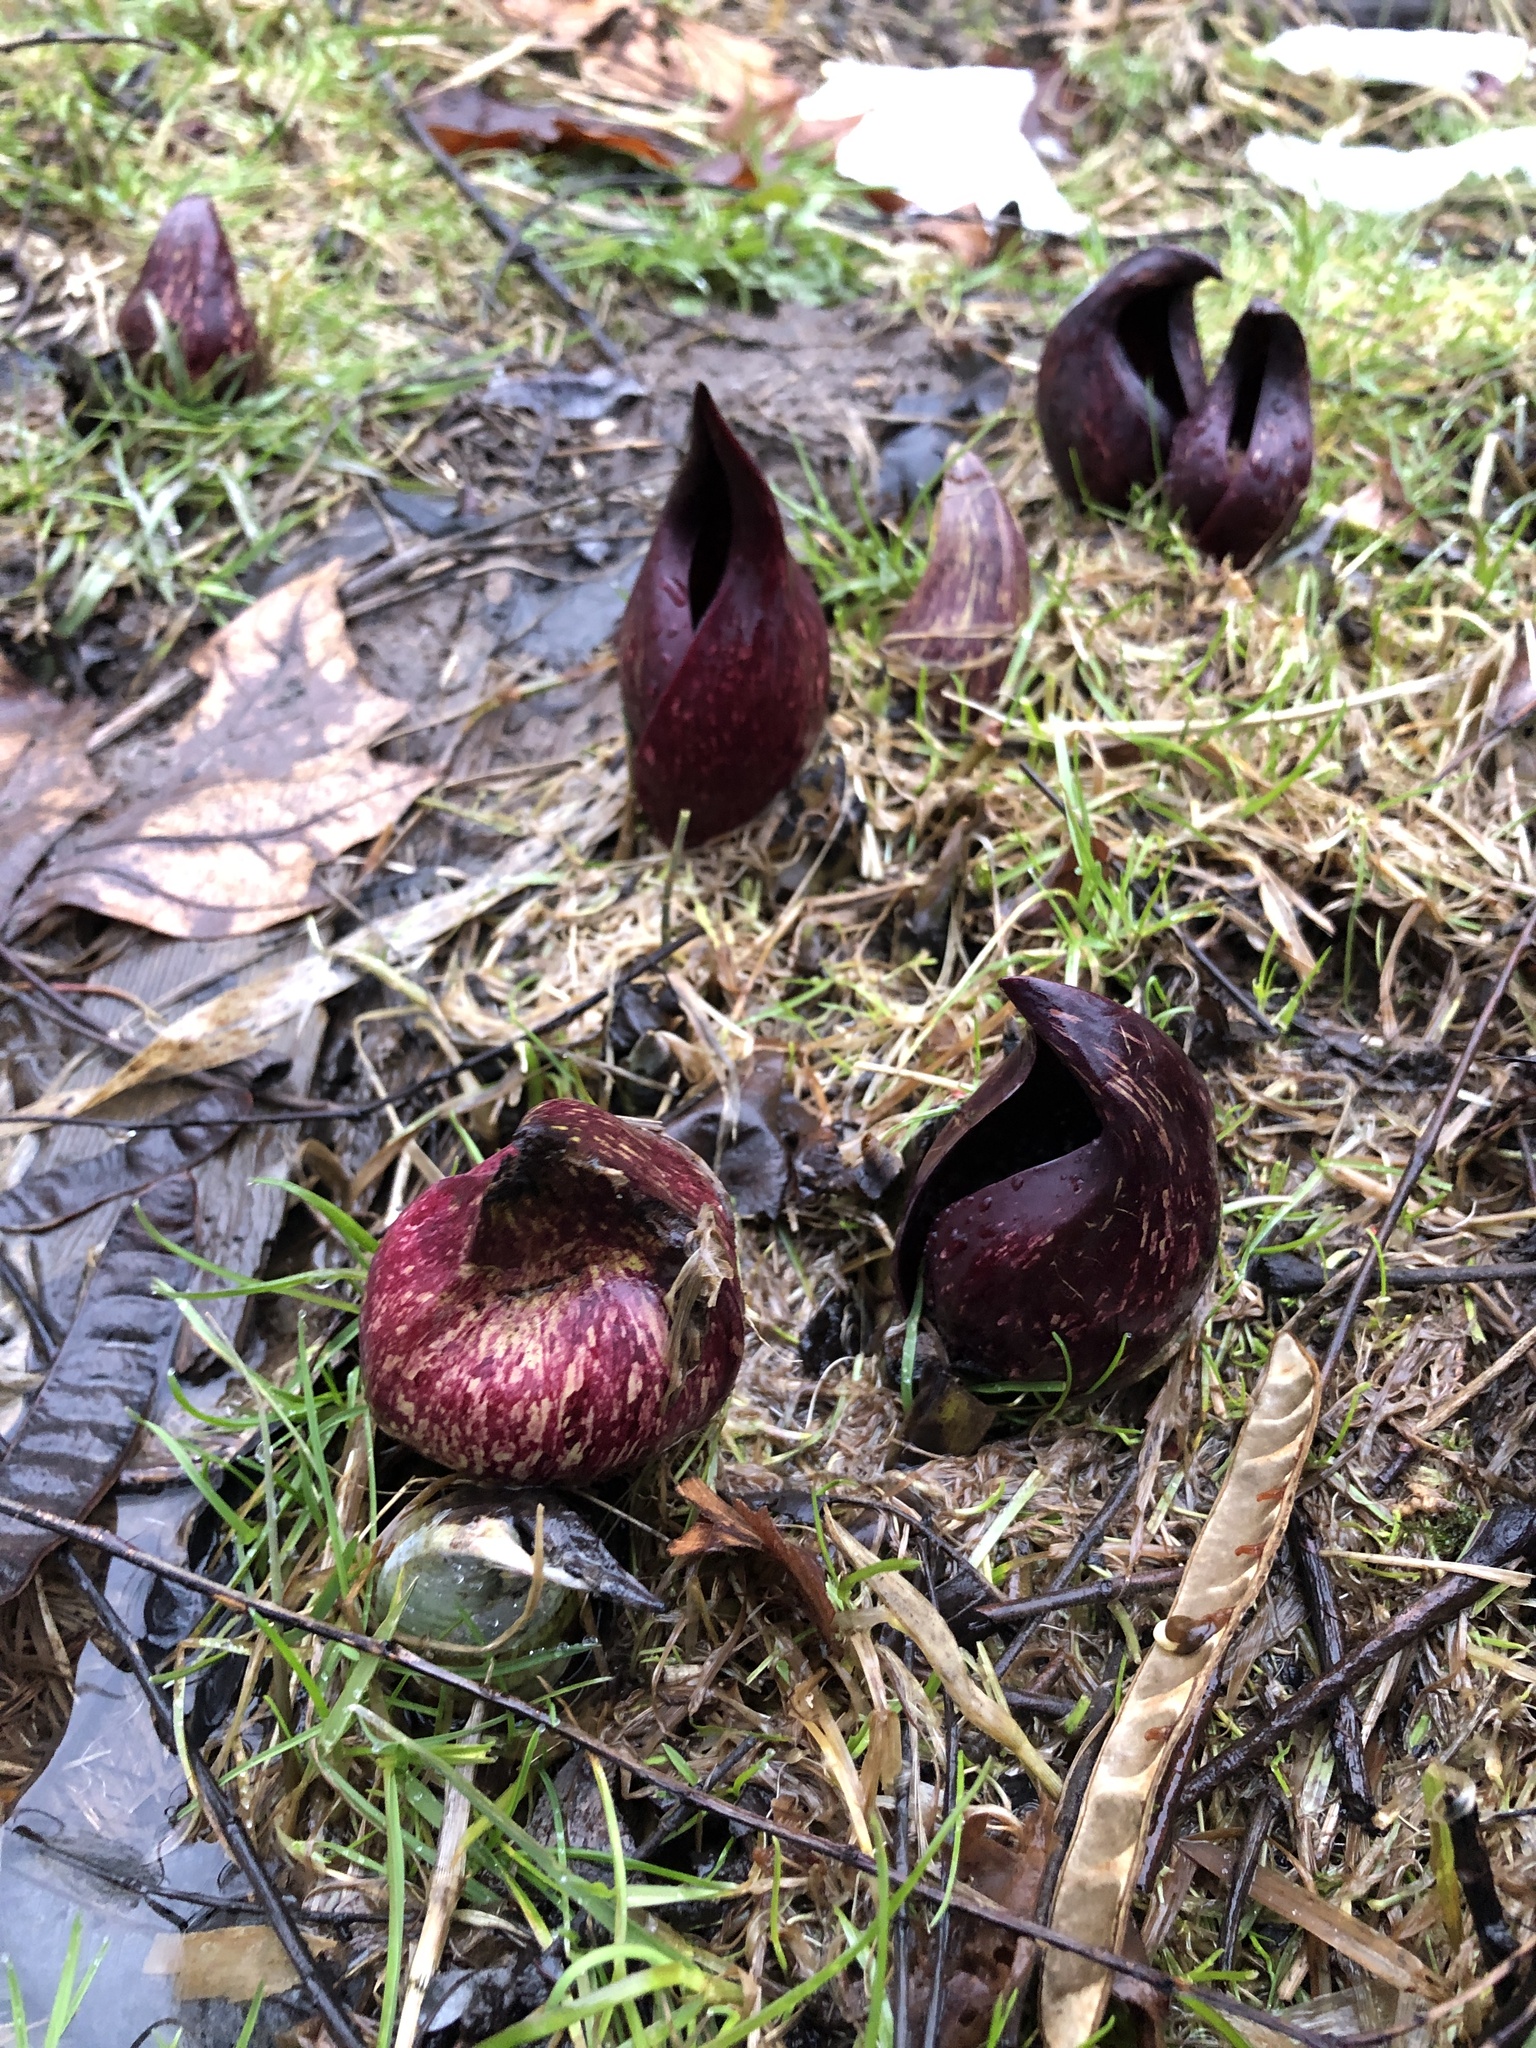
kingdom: Plantae
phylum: Tracheophyta
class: Liliopsida
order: Alismatales
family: Araceae
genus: Symplocarpus
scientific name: Symplocarpus foetidus
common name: Eastern skunk cabbage
